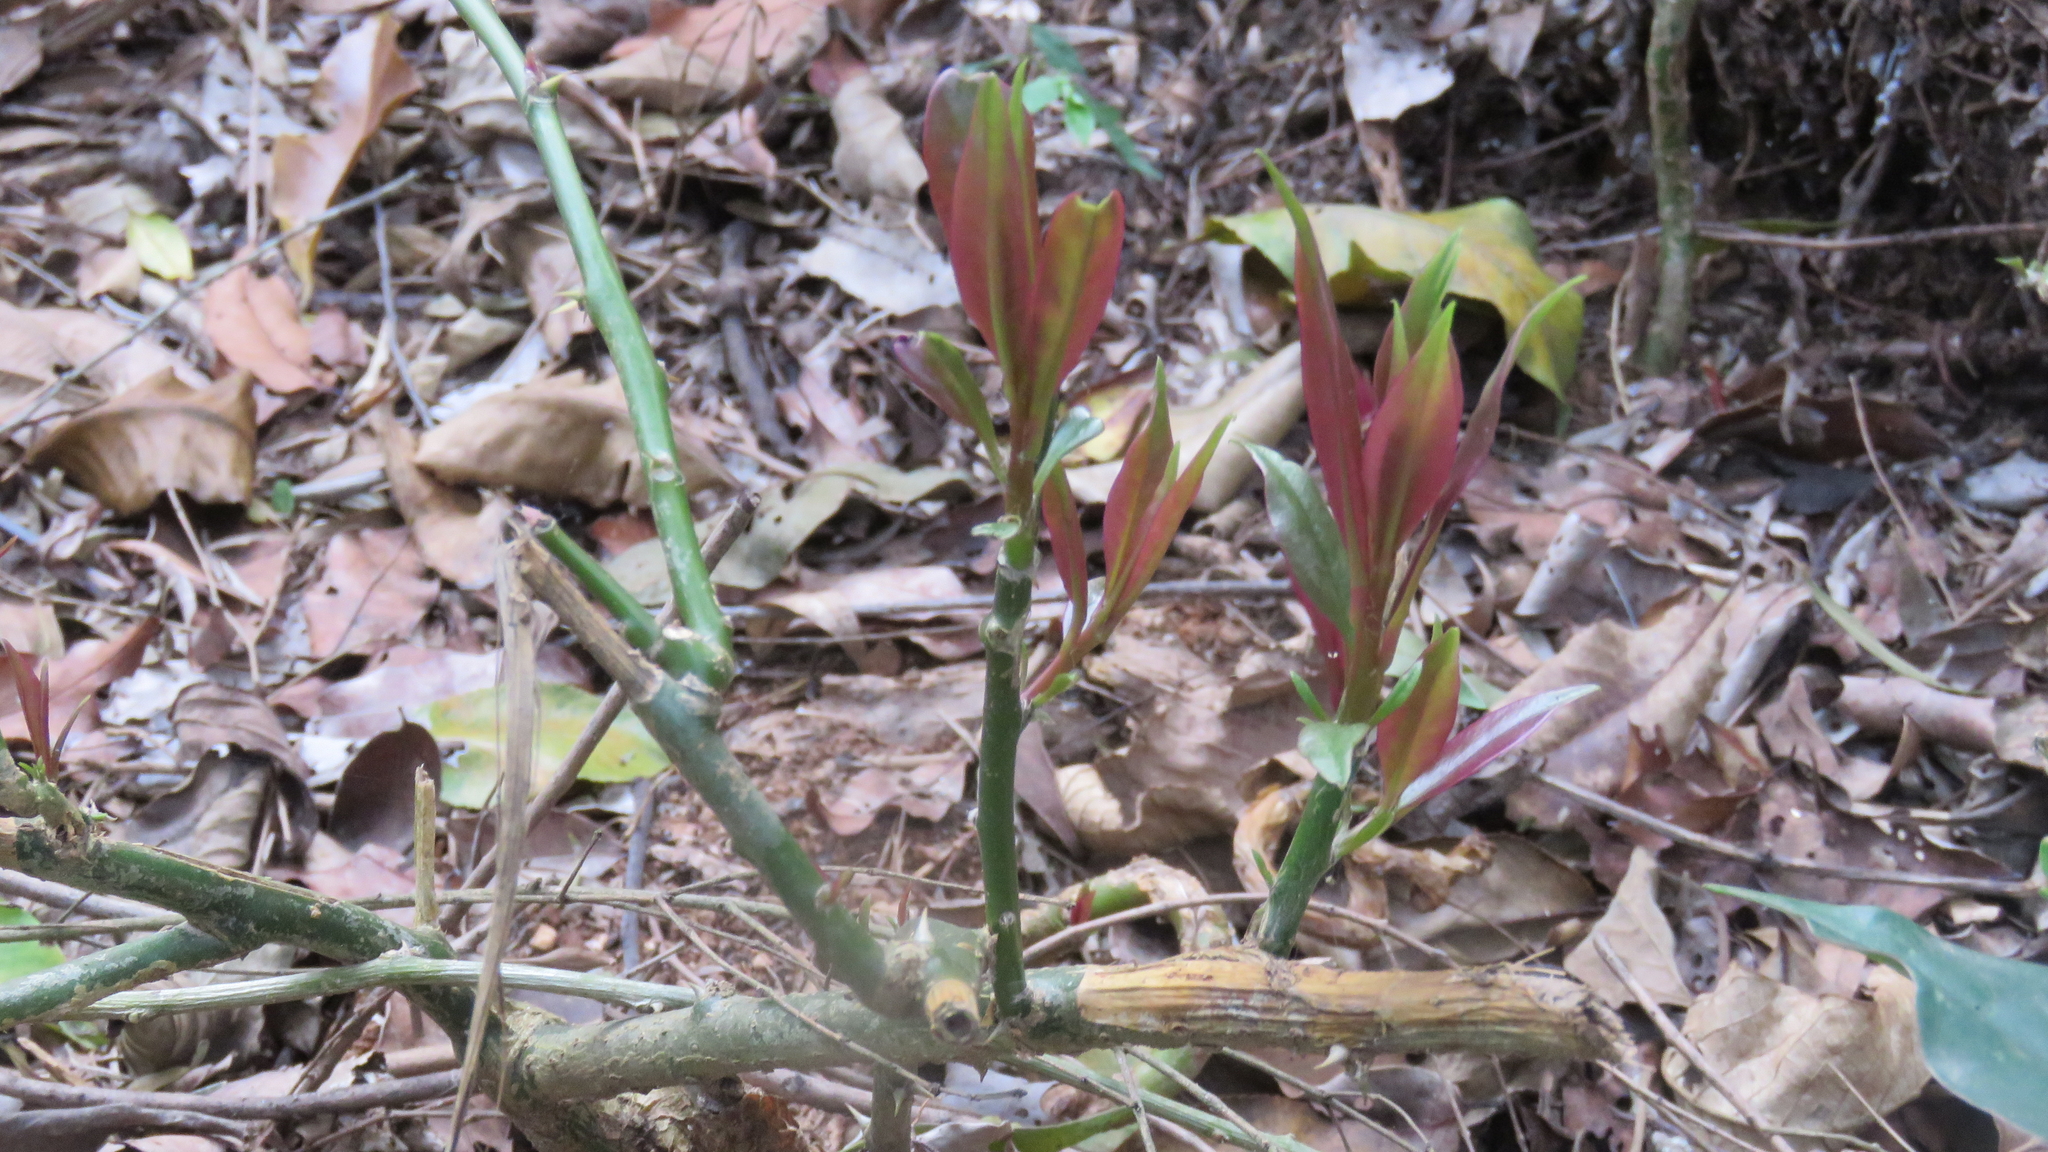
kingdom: Plantae
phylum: Tracheophyta
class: Magnoliopsida
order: Caryophyllales
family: Cactaceae
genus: Pereskia
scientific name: Pereskia aculeata
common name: Barbados gooseberry
